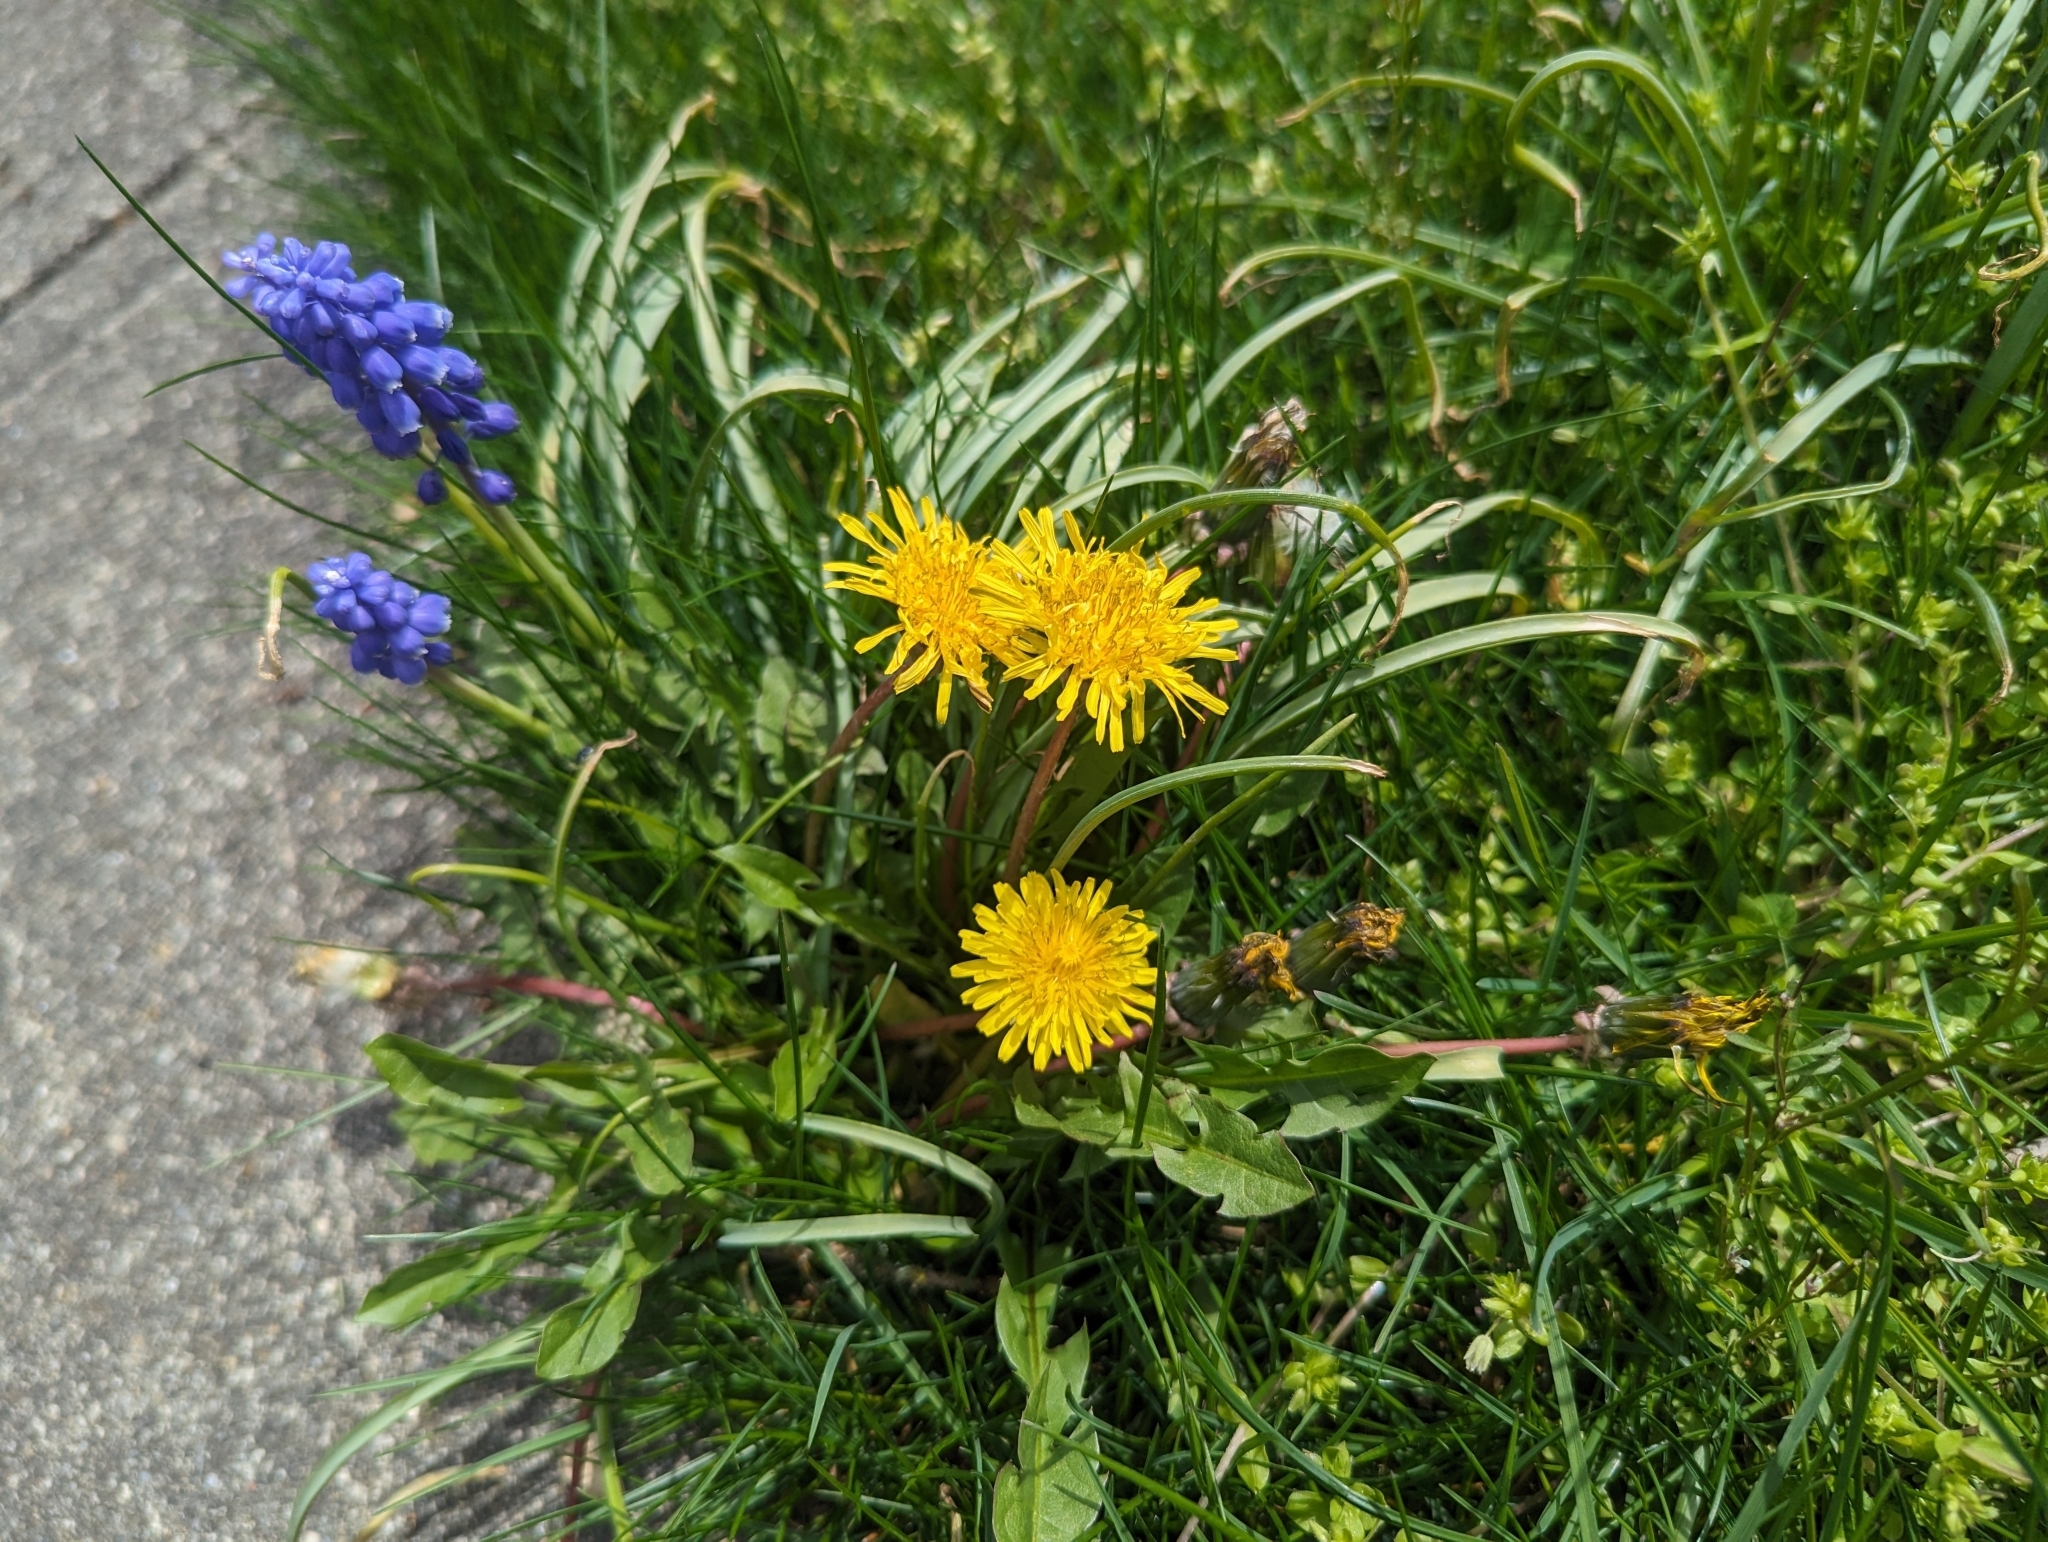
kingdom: Plantae
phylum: Tracheophyta
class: Magnoliopsida
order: Asterales
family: Asteraceae
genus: Taraxacum
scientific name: Taraxacum
